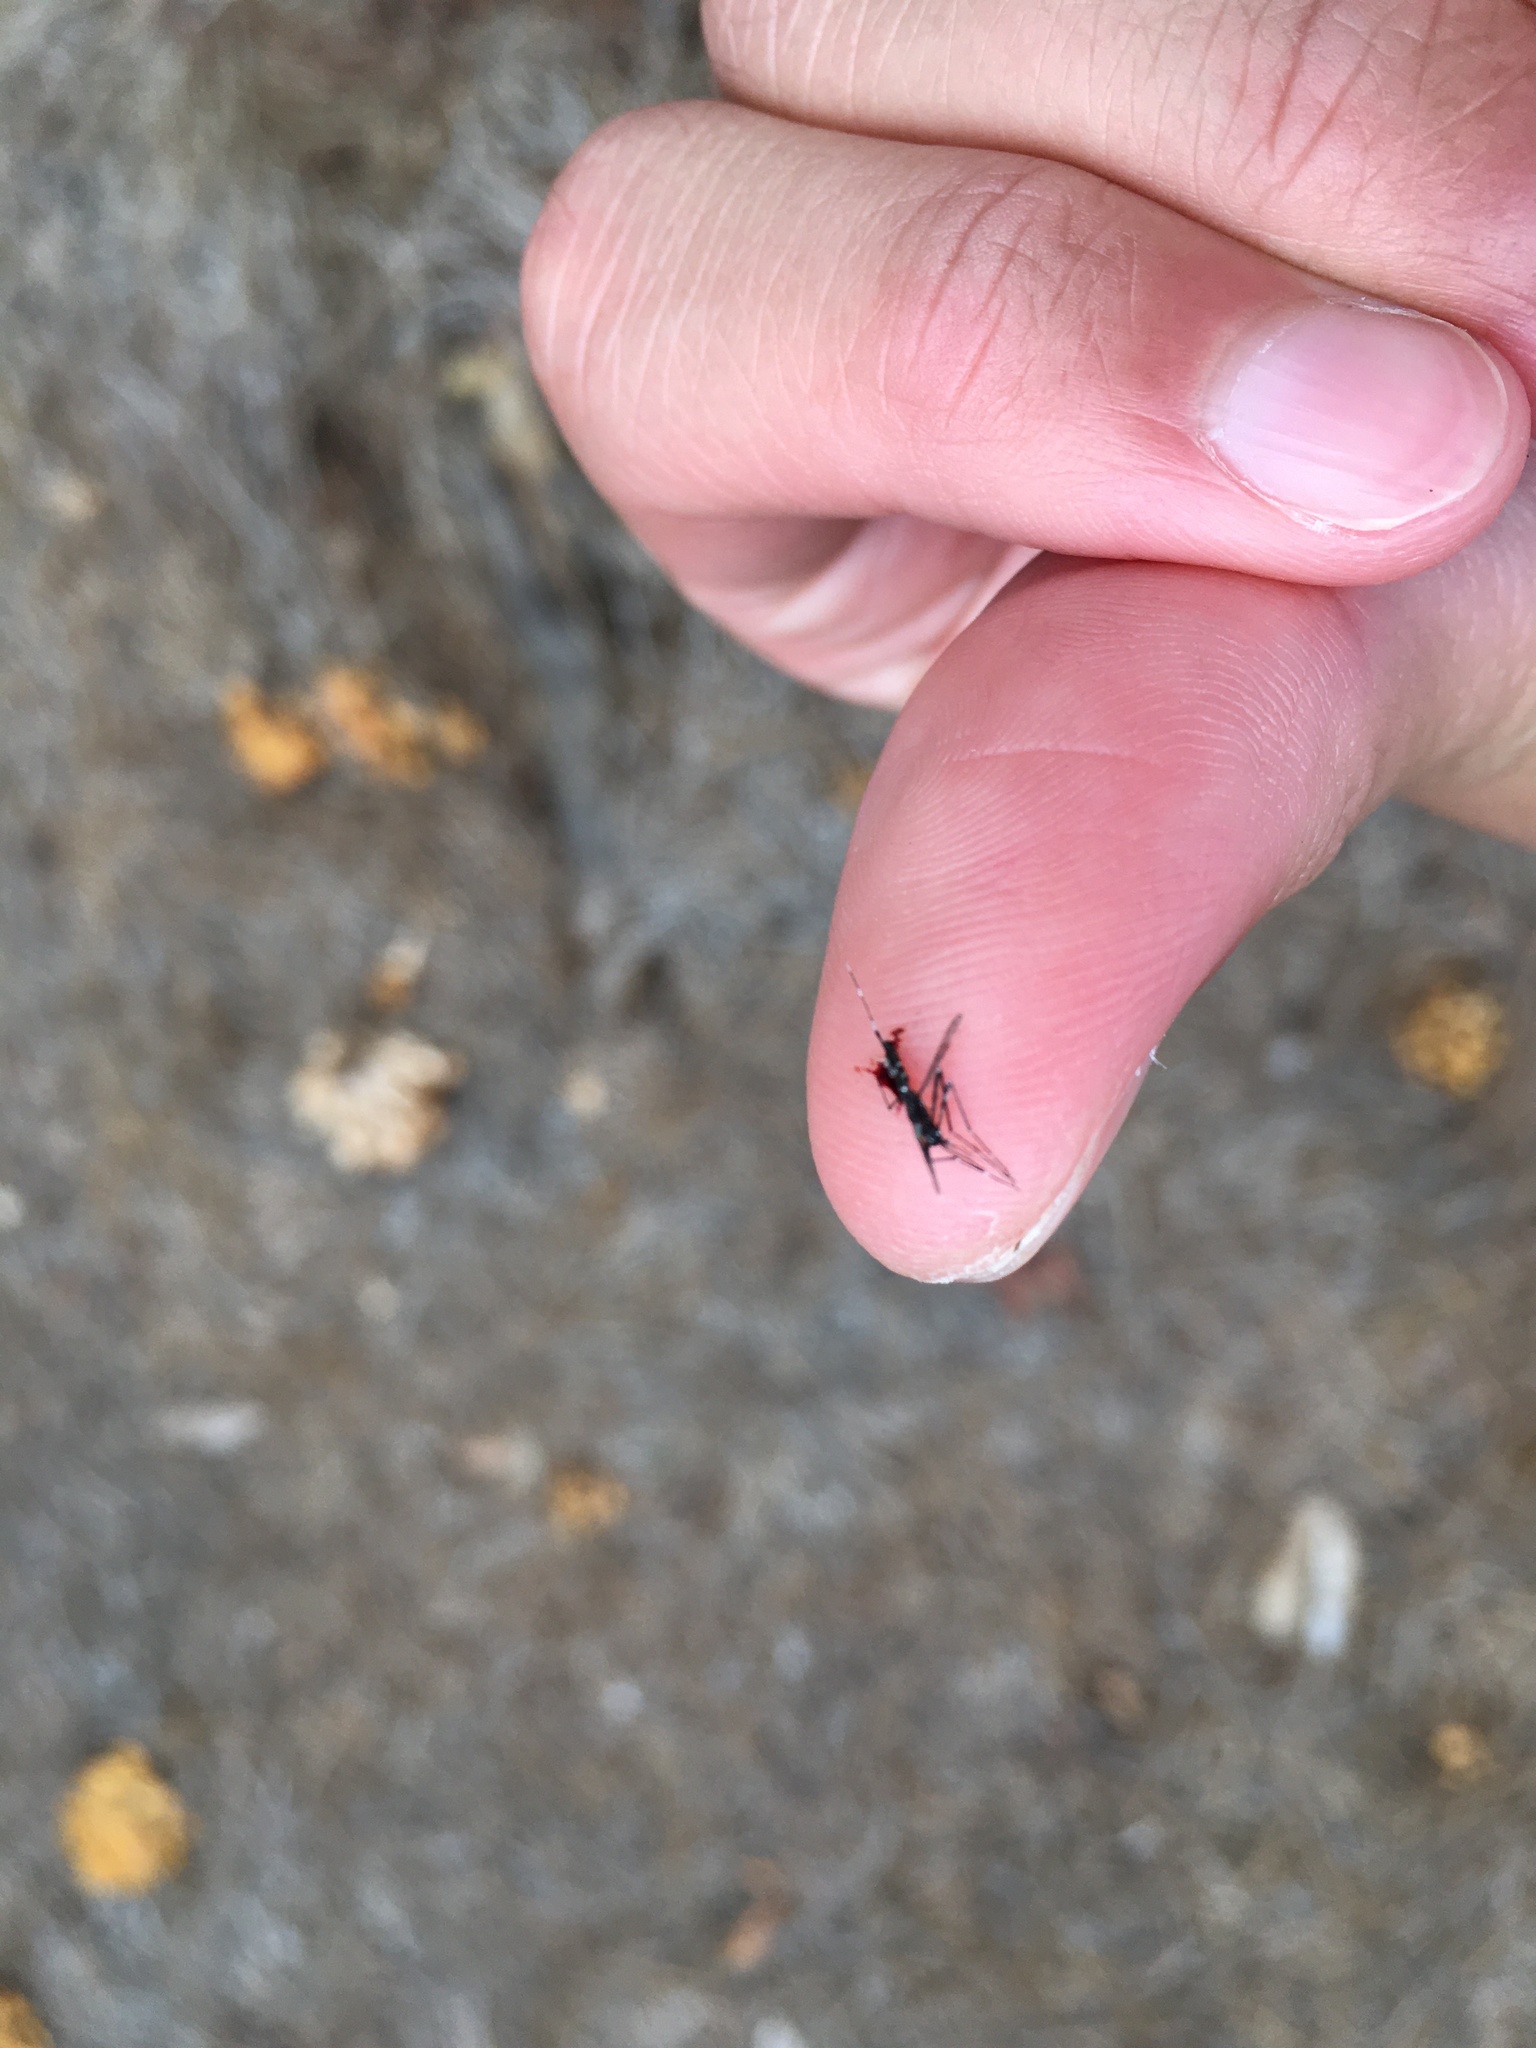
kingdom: Animalia
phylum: Arthropoda
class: Insecta
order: Diptera
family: Culicidae
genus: Aedes
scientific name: Aedes albopictus
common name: Tiger mosquito
